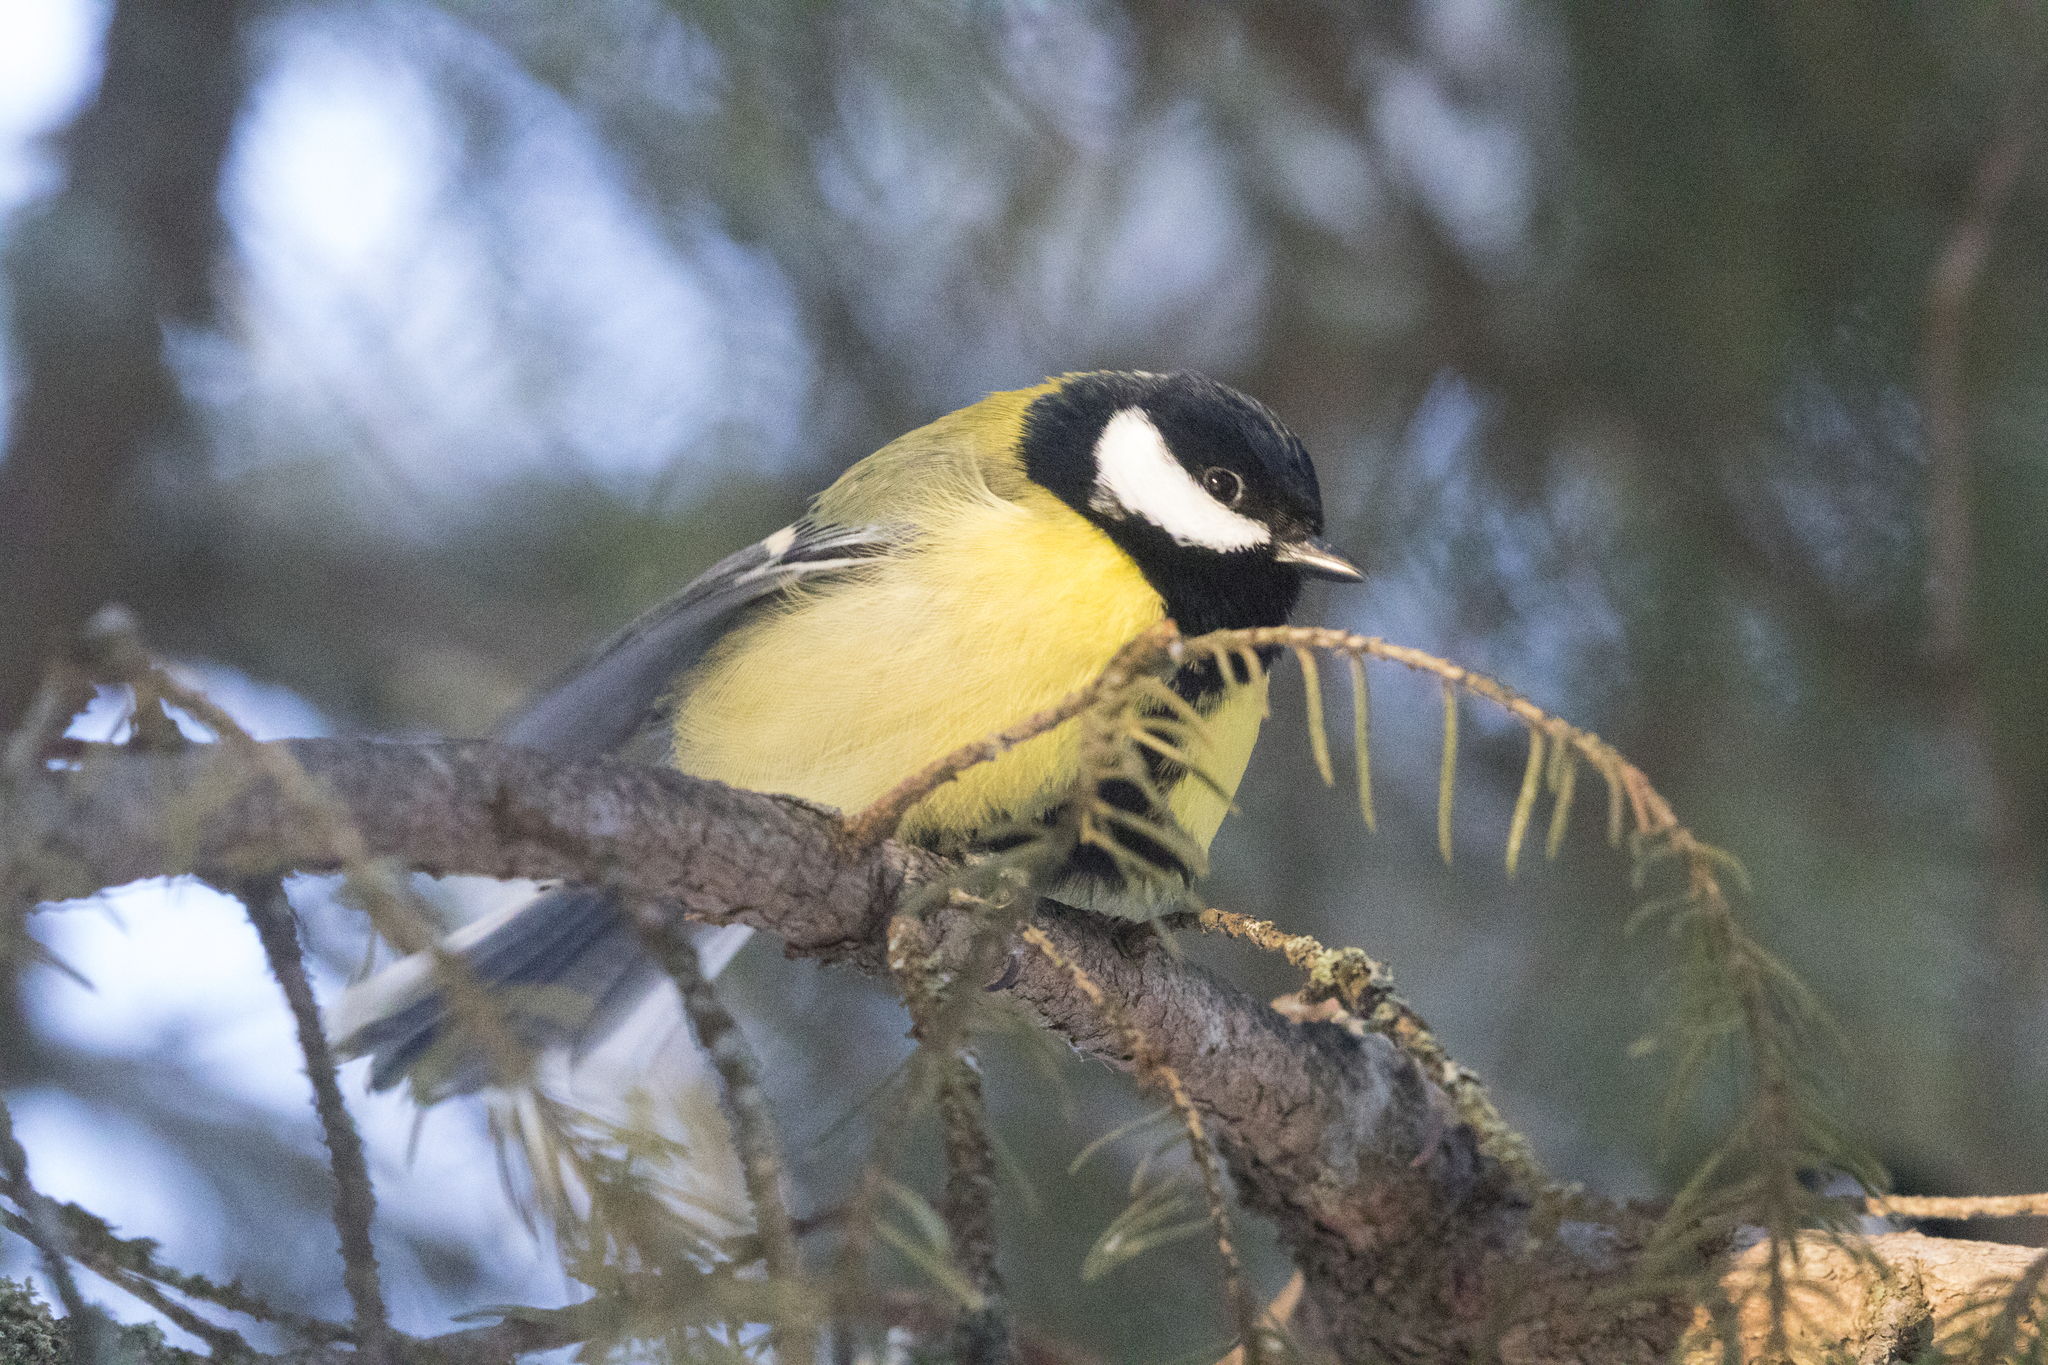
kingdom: Animalia
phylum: Chordata
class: Aves
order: Passeriformes
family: Paridae
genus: Parus
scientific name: Parus major
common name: Great tit
